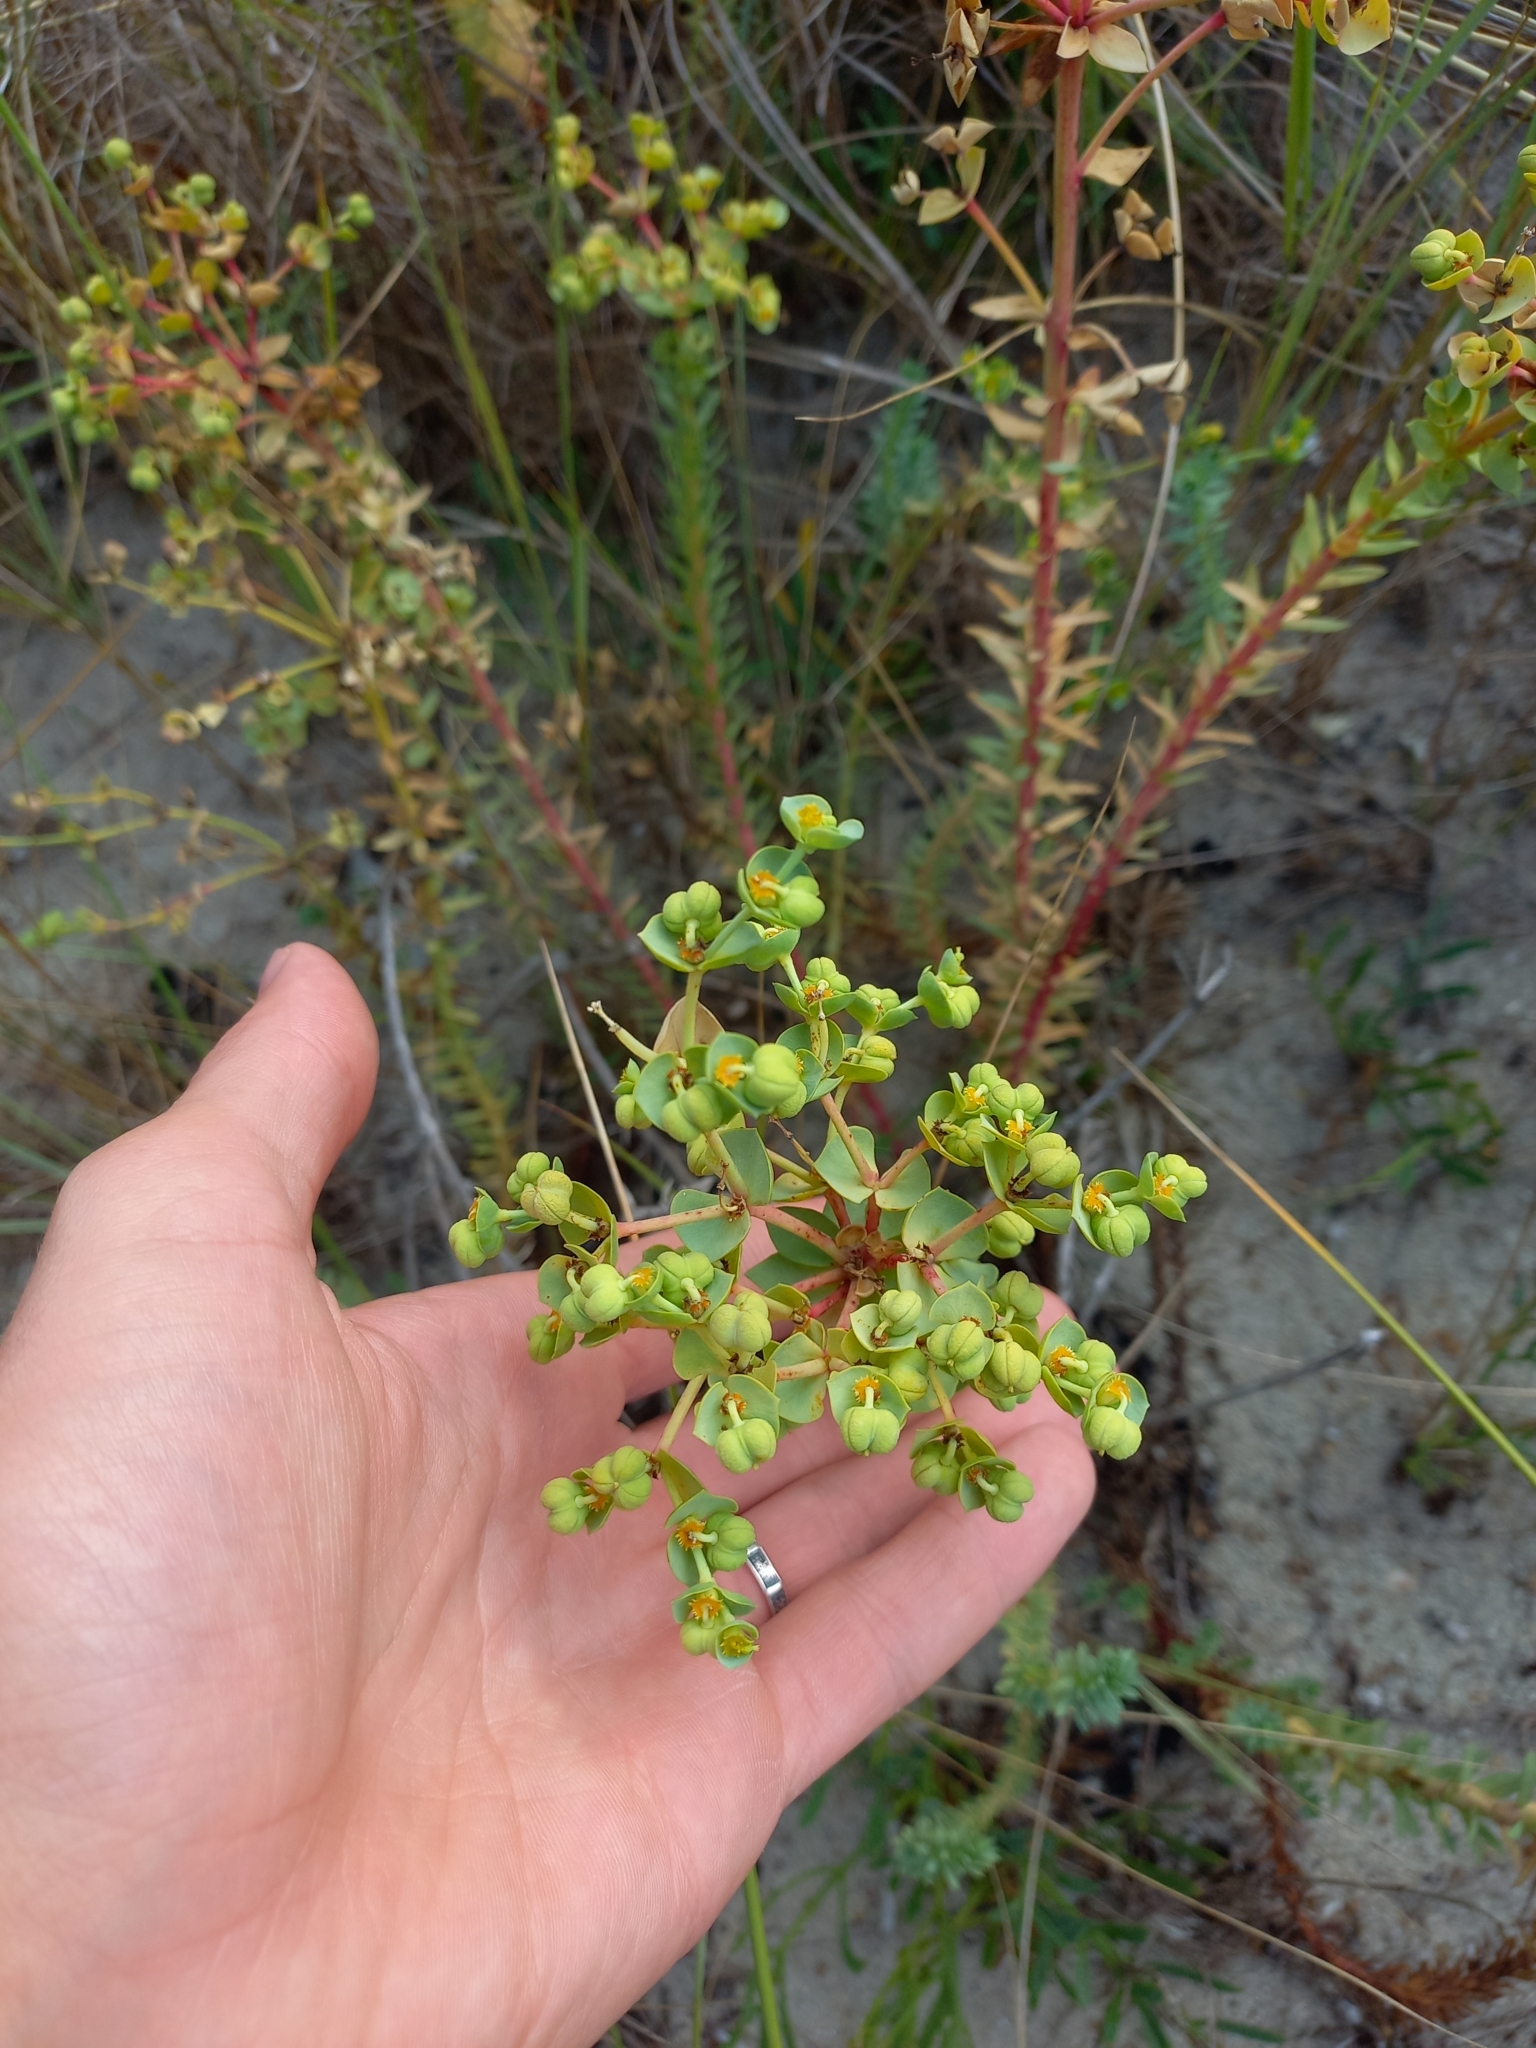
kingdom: Plantae
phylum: Tracheophyta
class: Magnoliopsida
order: Malpighiales
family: Euphorbiaceae
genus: Euphorbia
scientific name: Euphorbia paralias
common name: Sea spurge
